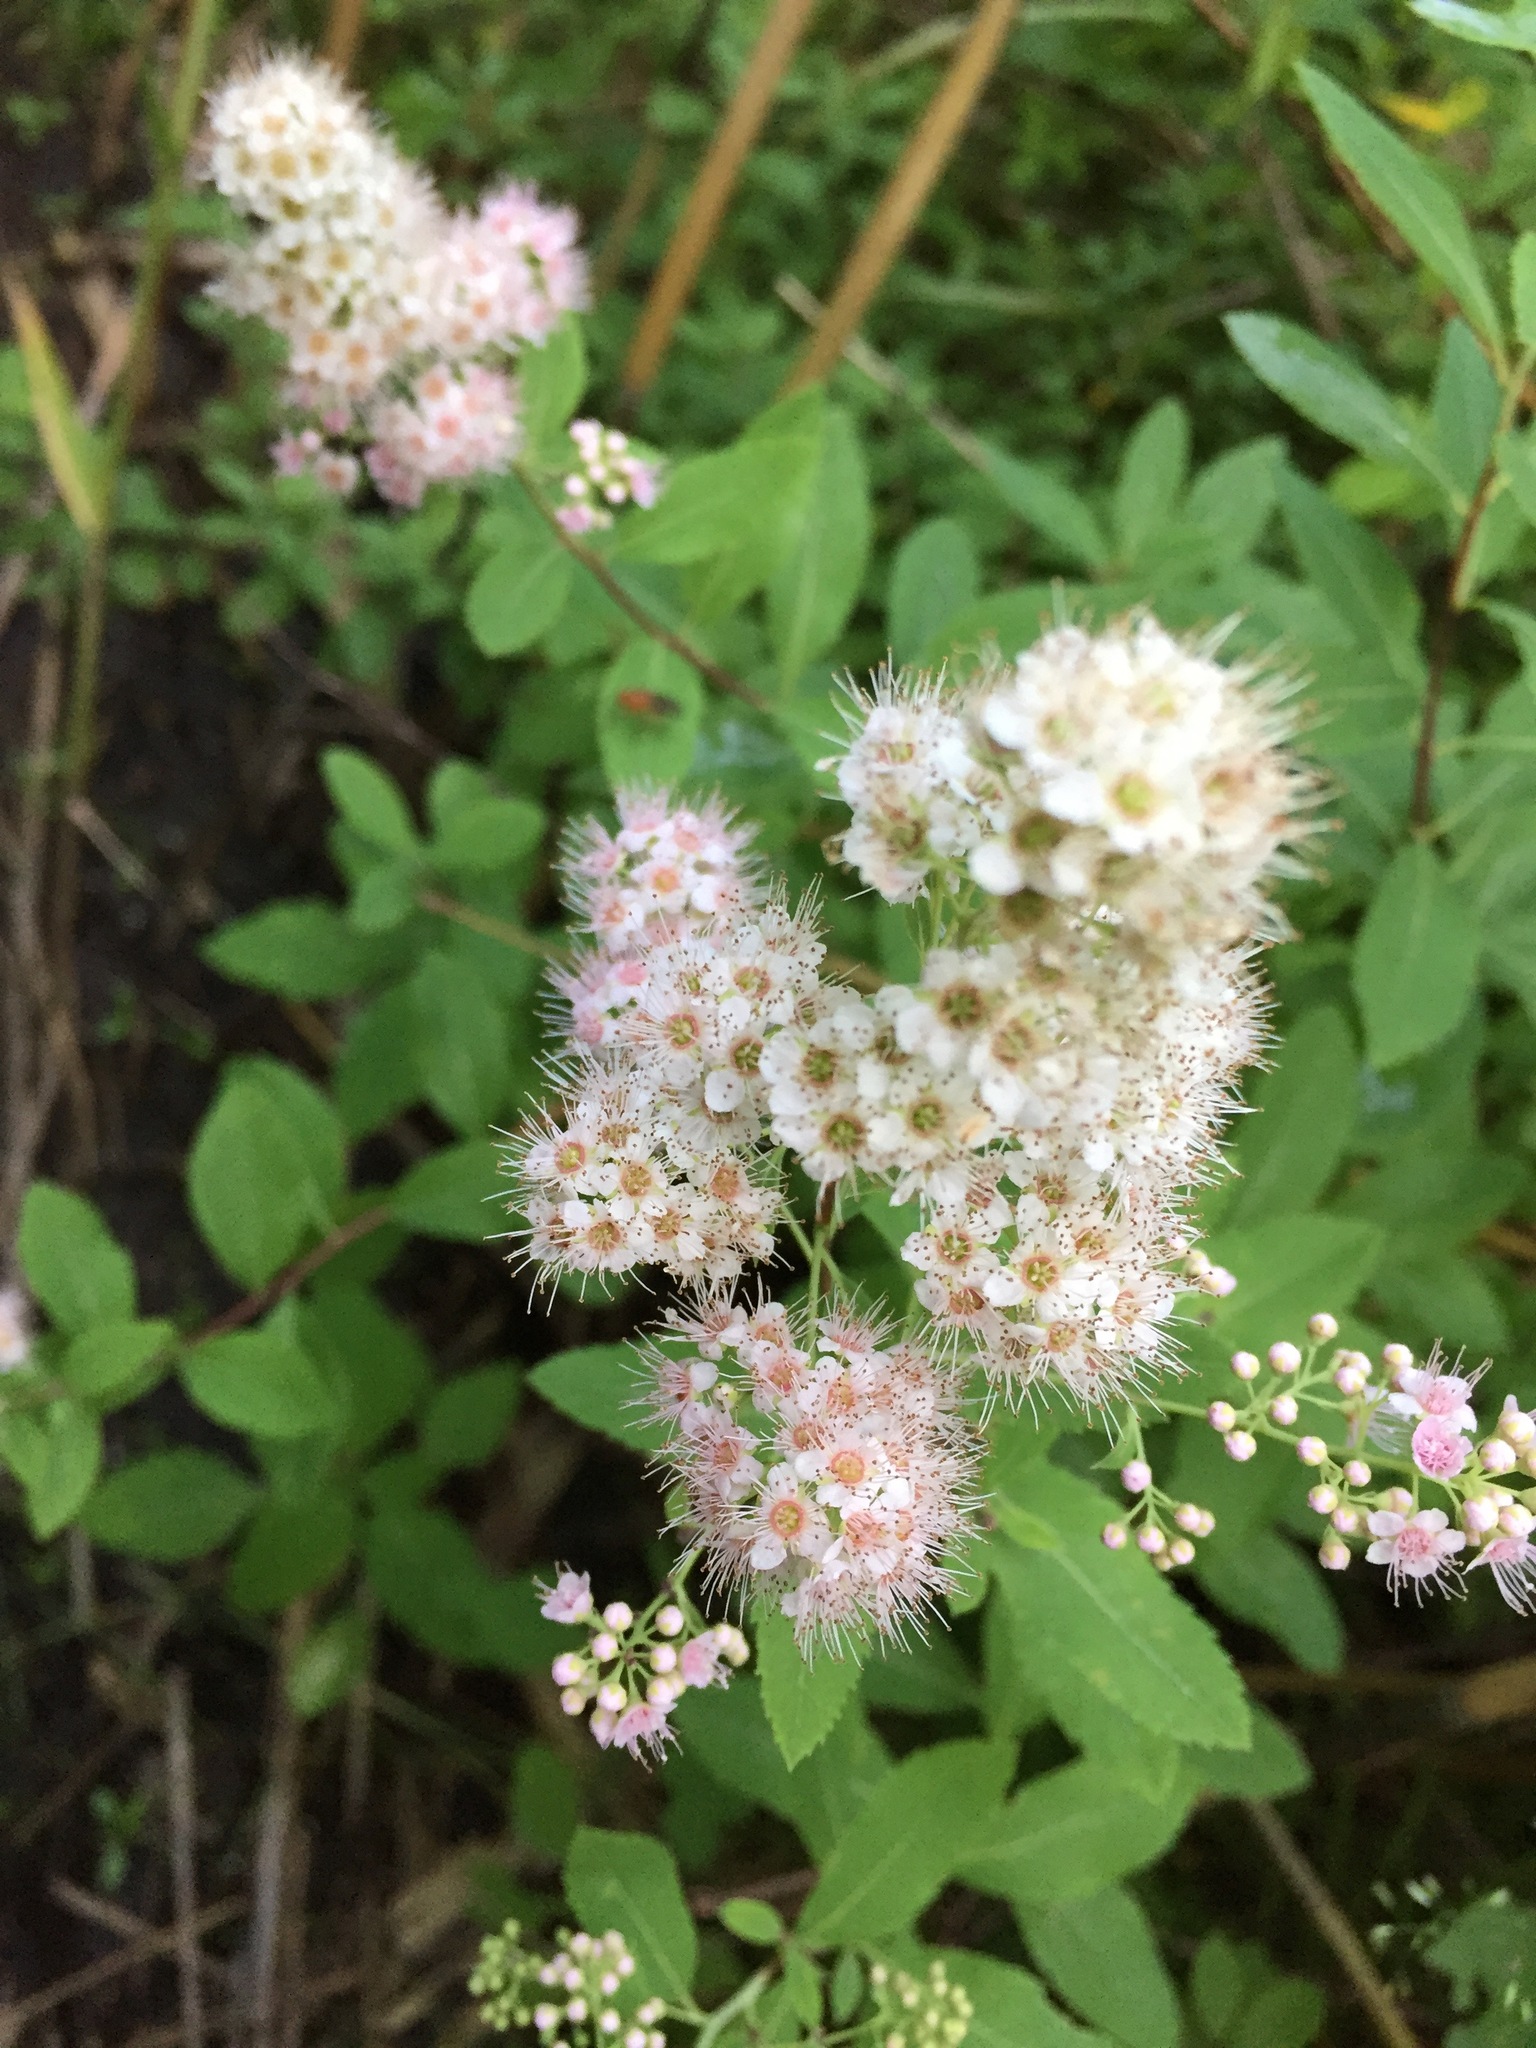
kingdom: Plantae
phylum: Tracheophyta
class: Magnoliopsida
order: Rosales
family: Rosaceae
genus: Spiraea
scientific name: Spiraea alba
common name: Pale bridewort
